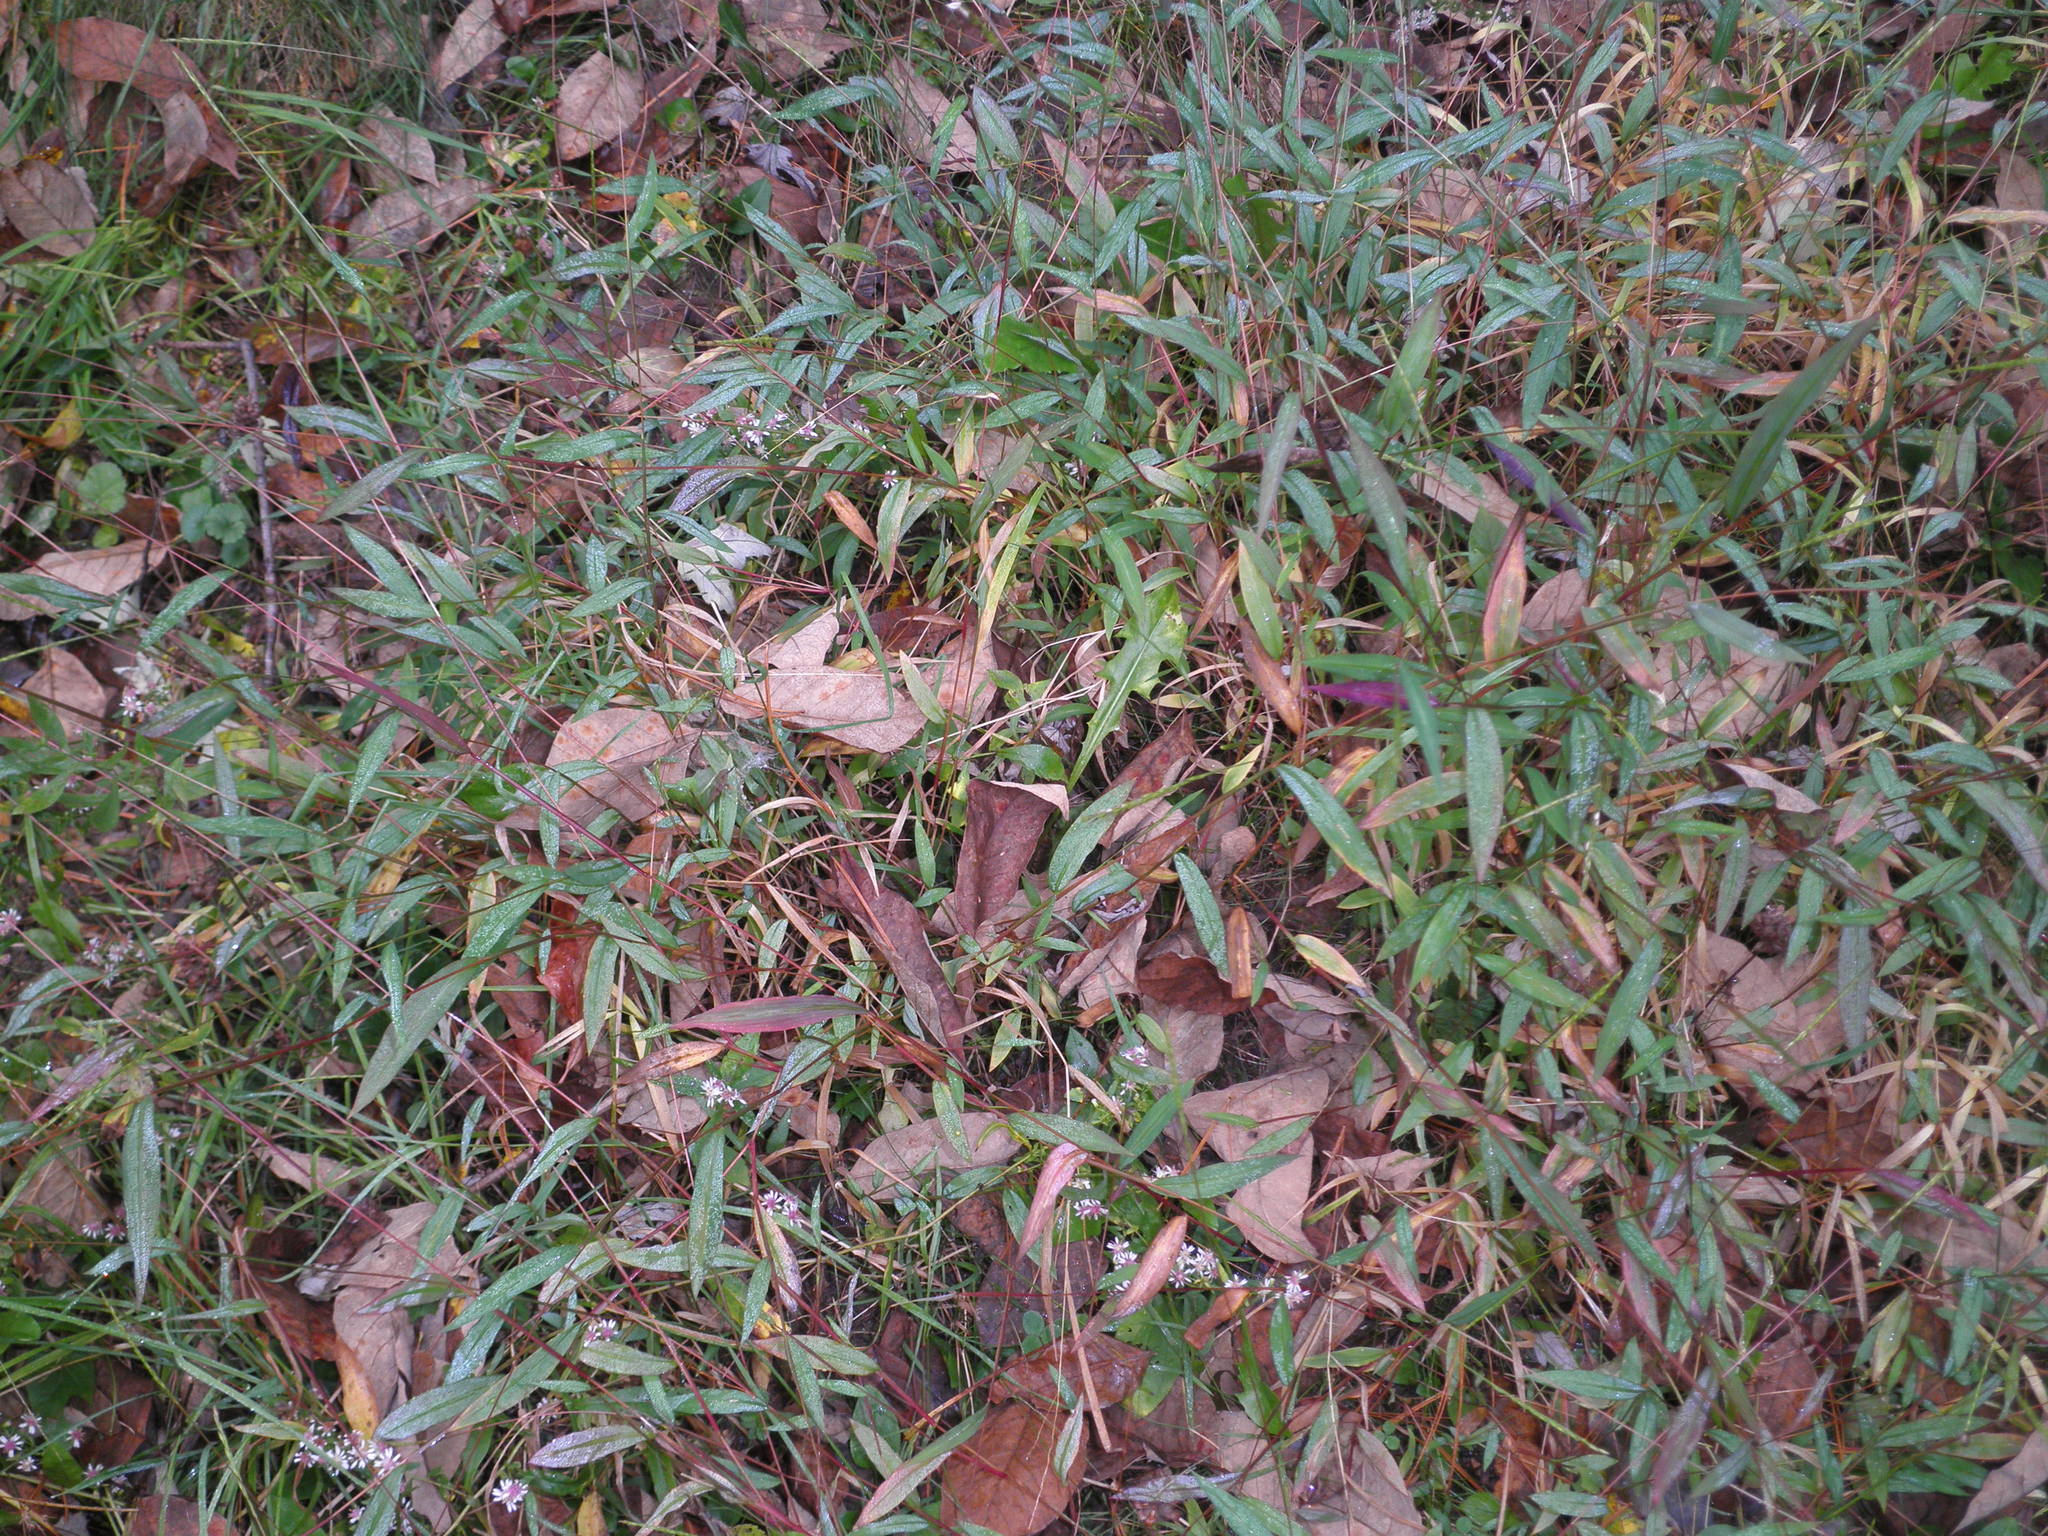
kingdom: Plantae
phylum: Tracheophyta
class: Liliopsida
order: Poales
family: Poaceae
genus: Microstegium
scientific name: Microstegium vimineum
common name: Japanese stiltgrass
